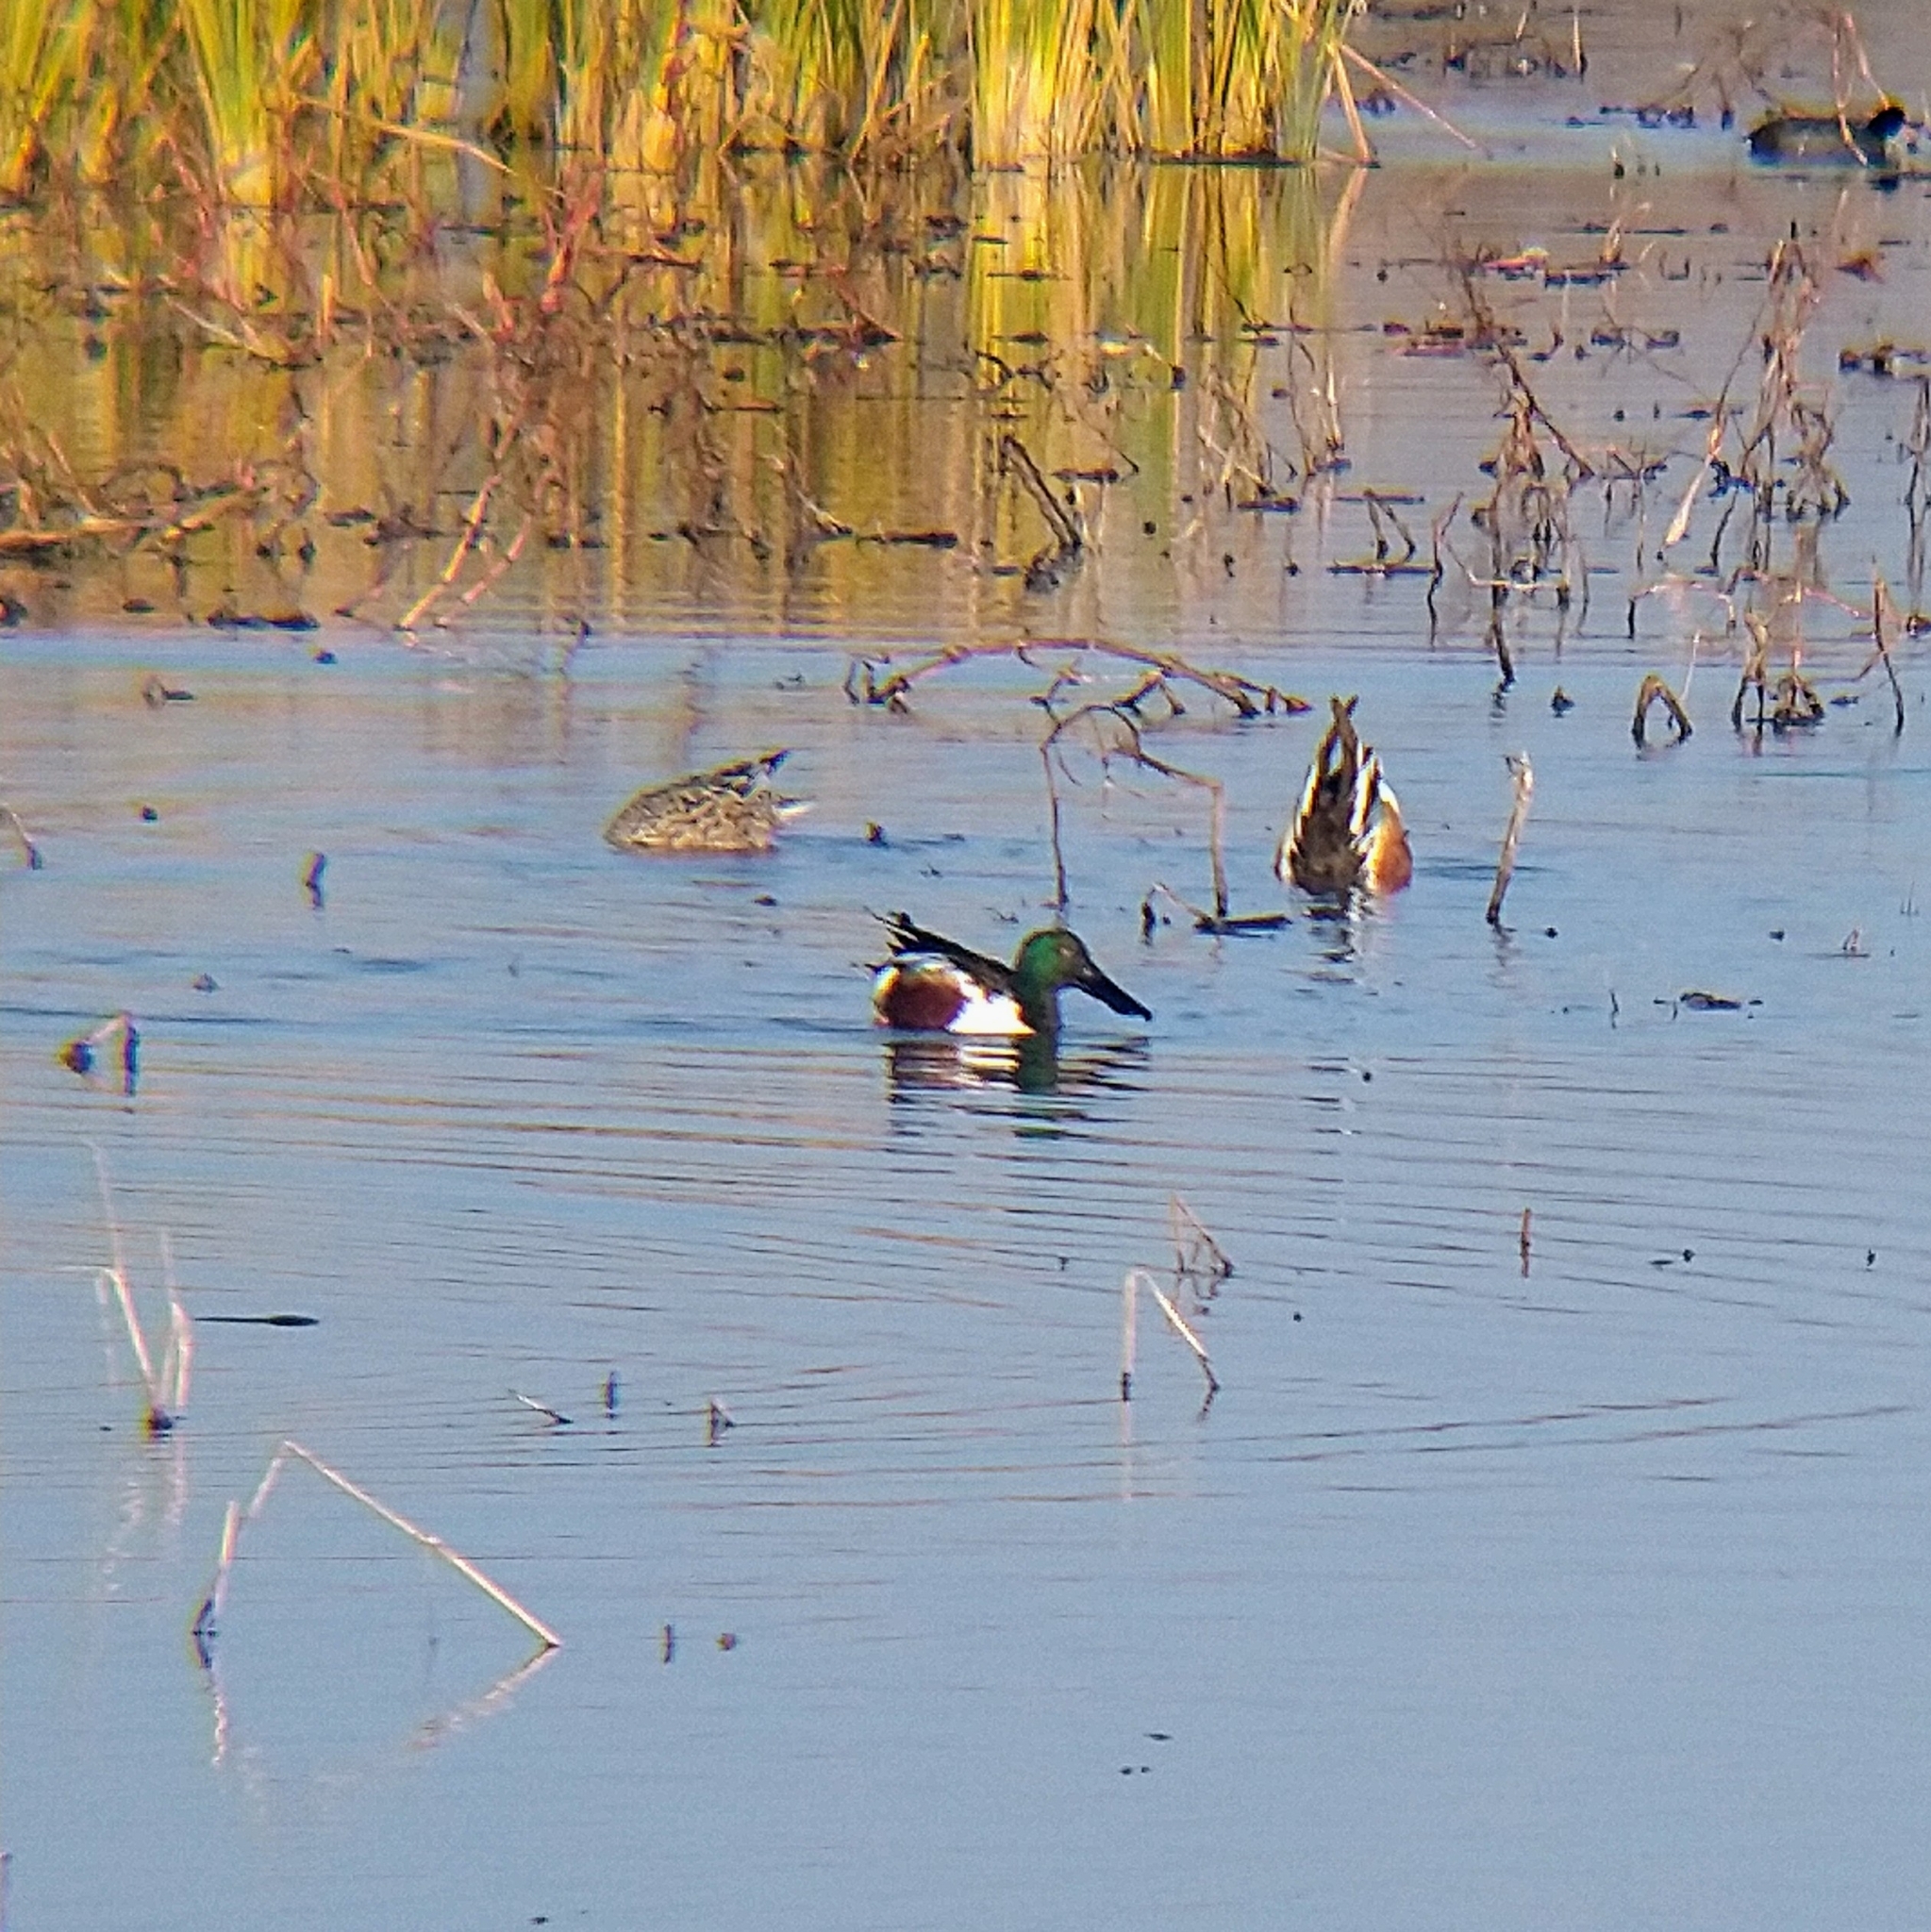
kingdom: Animalia
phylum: Chordata
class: Aves
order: Anseriformes
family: Anatidae
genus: Spatula
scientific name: Spatula clypeata
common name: Northern shoveler
